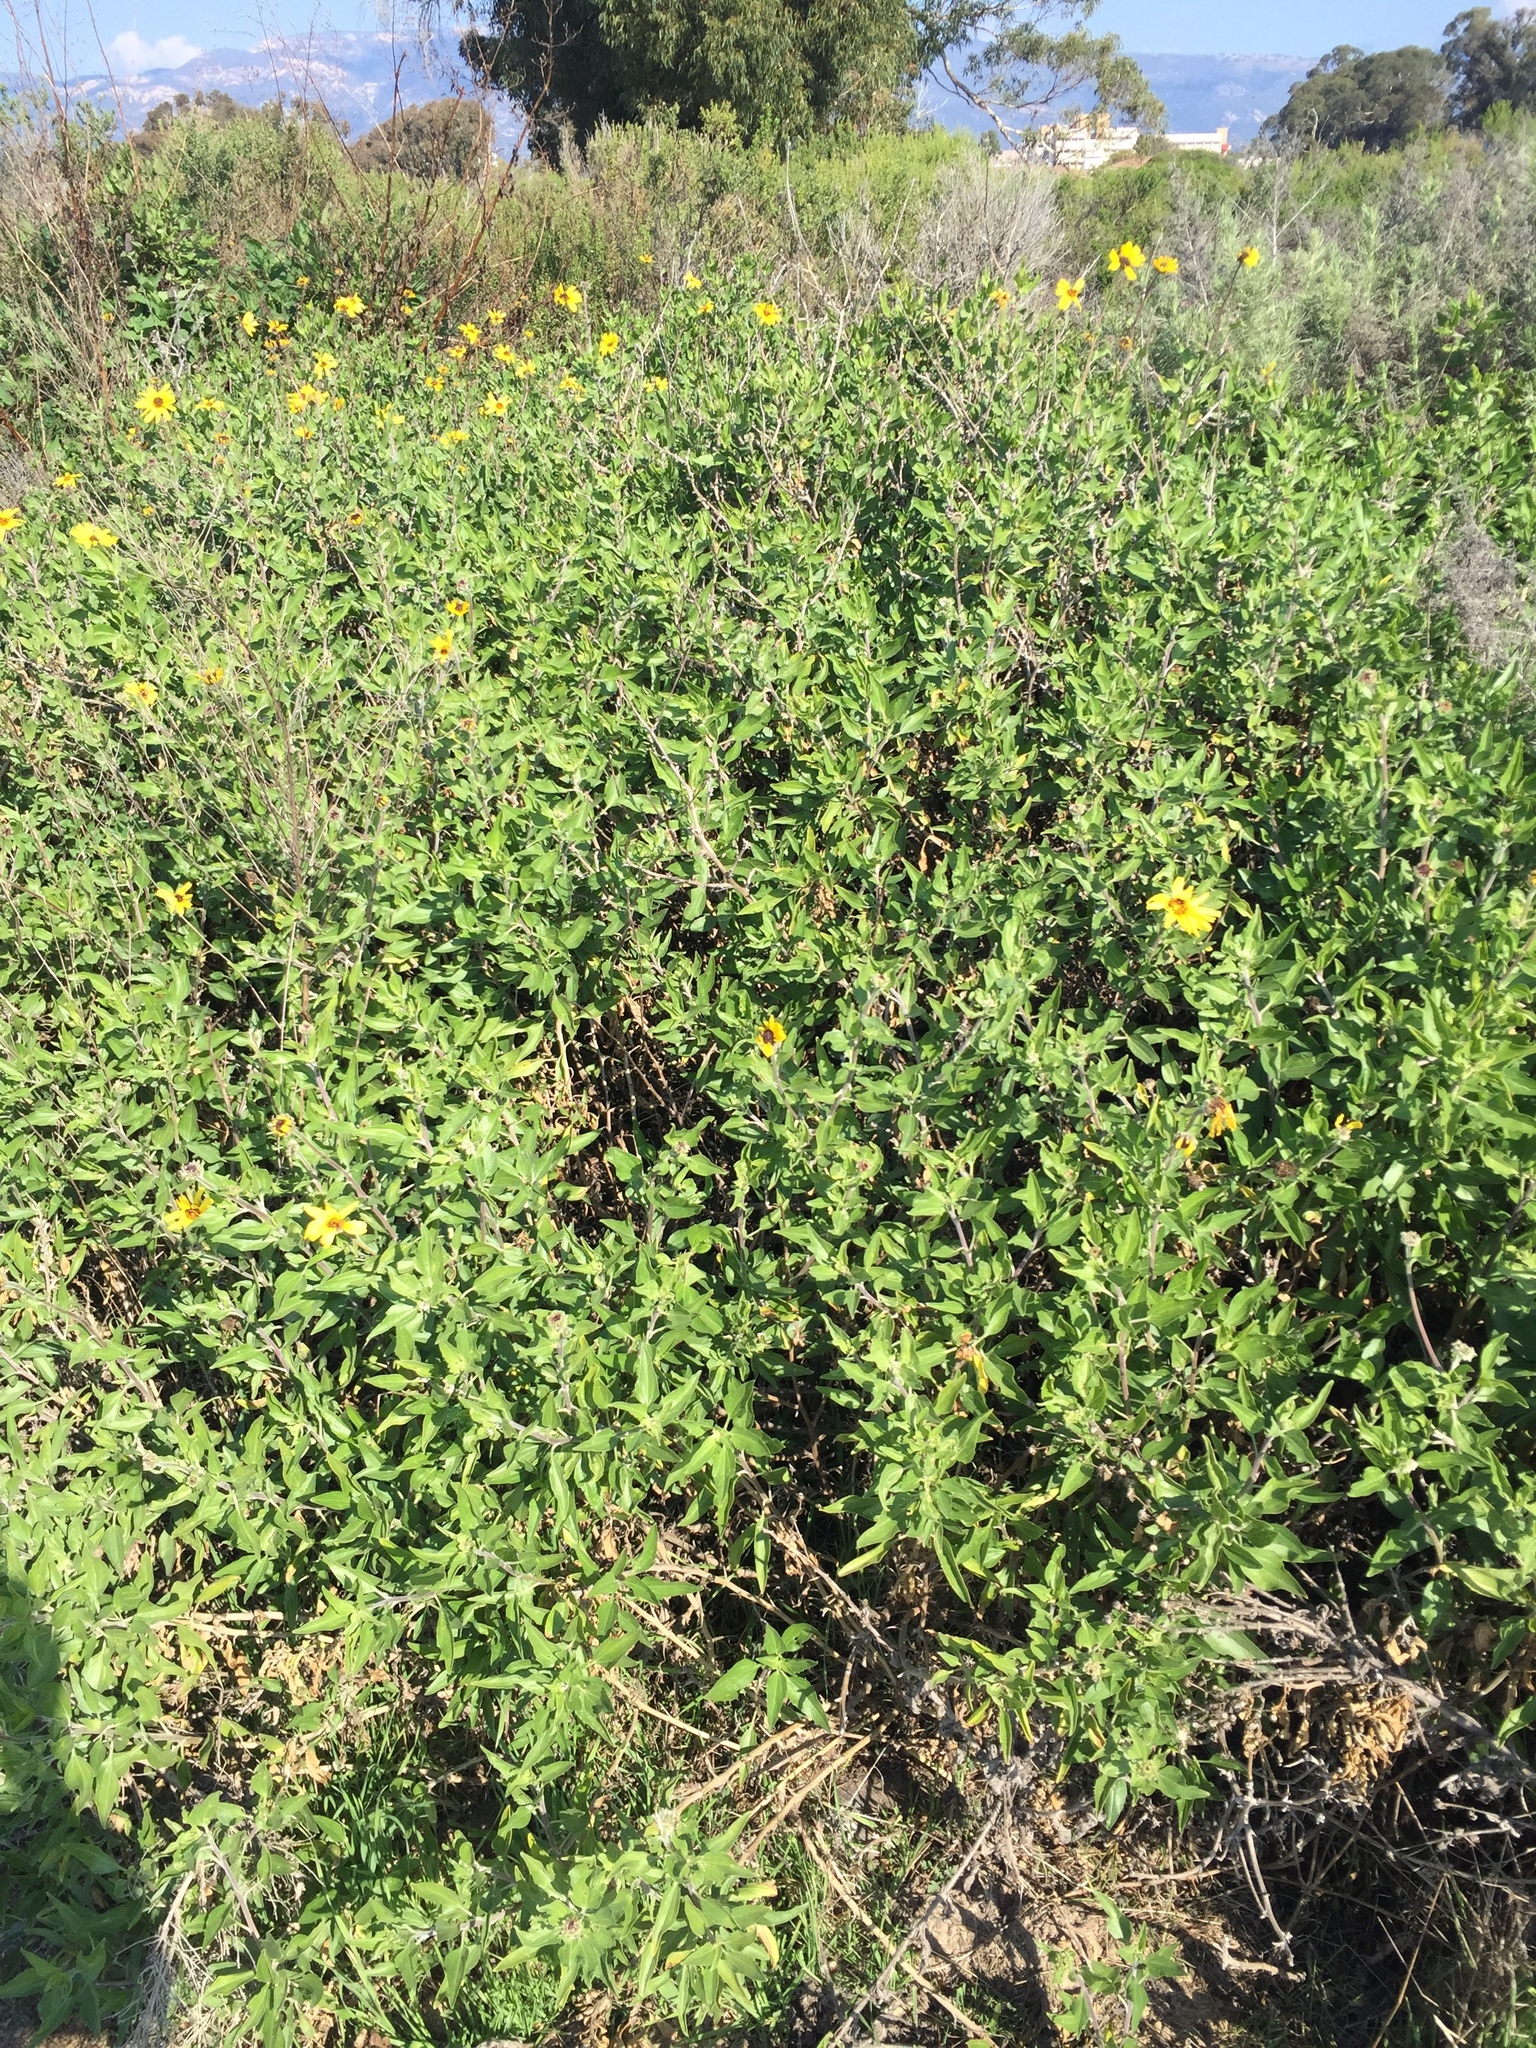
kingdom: Plantae
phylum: Tracheophyta
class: Magnoliopsida
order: Asterales
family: Asteraceae
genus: Encelia
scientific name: Encelia californica
